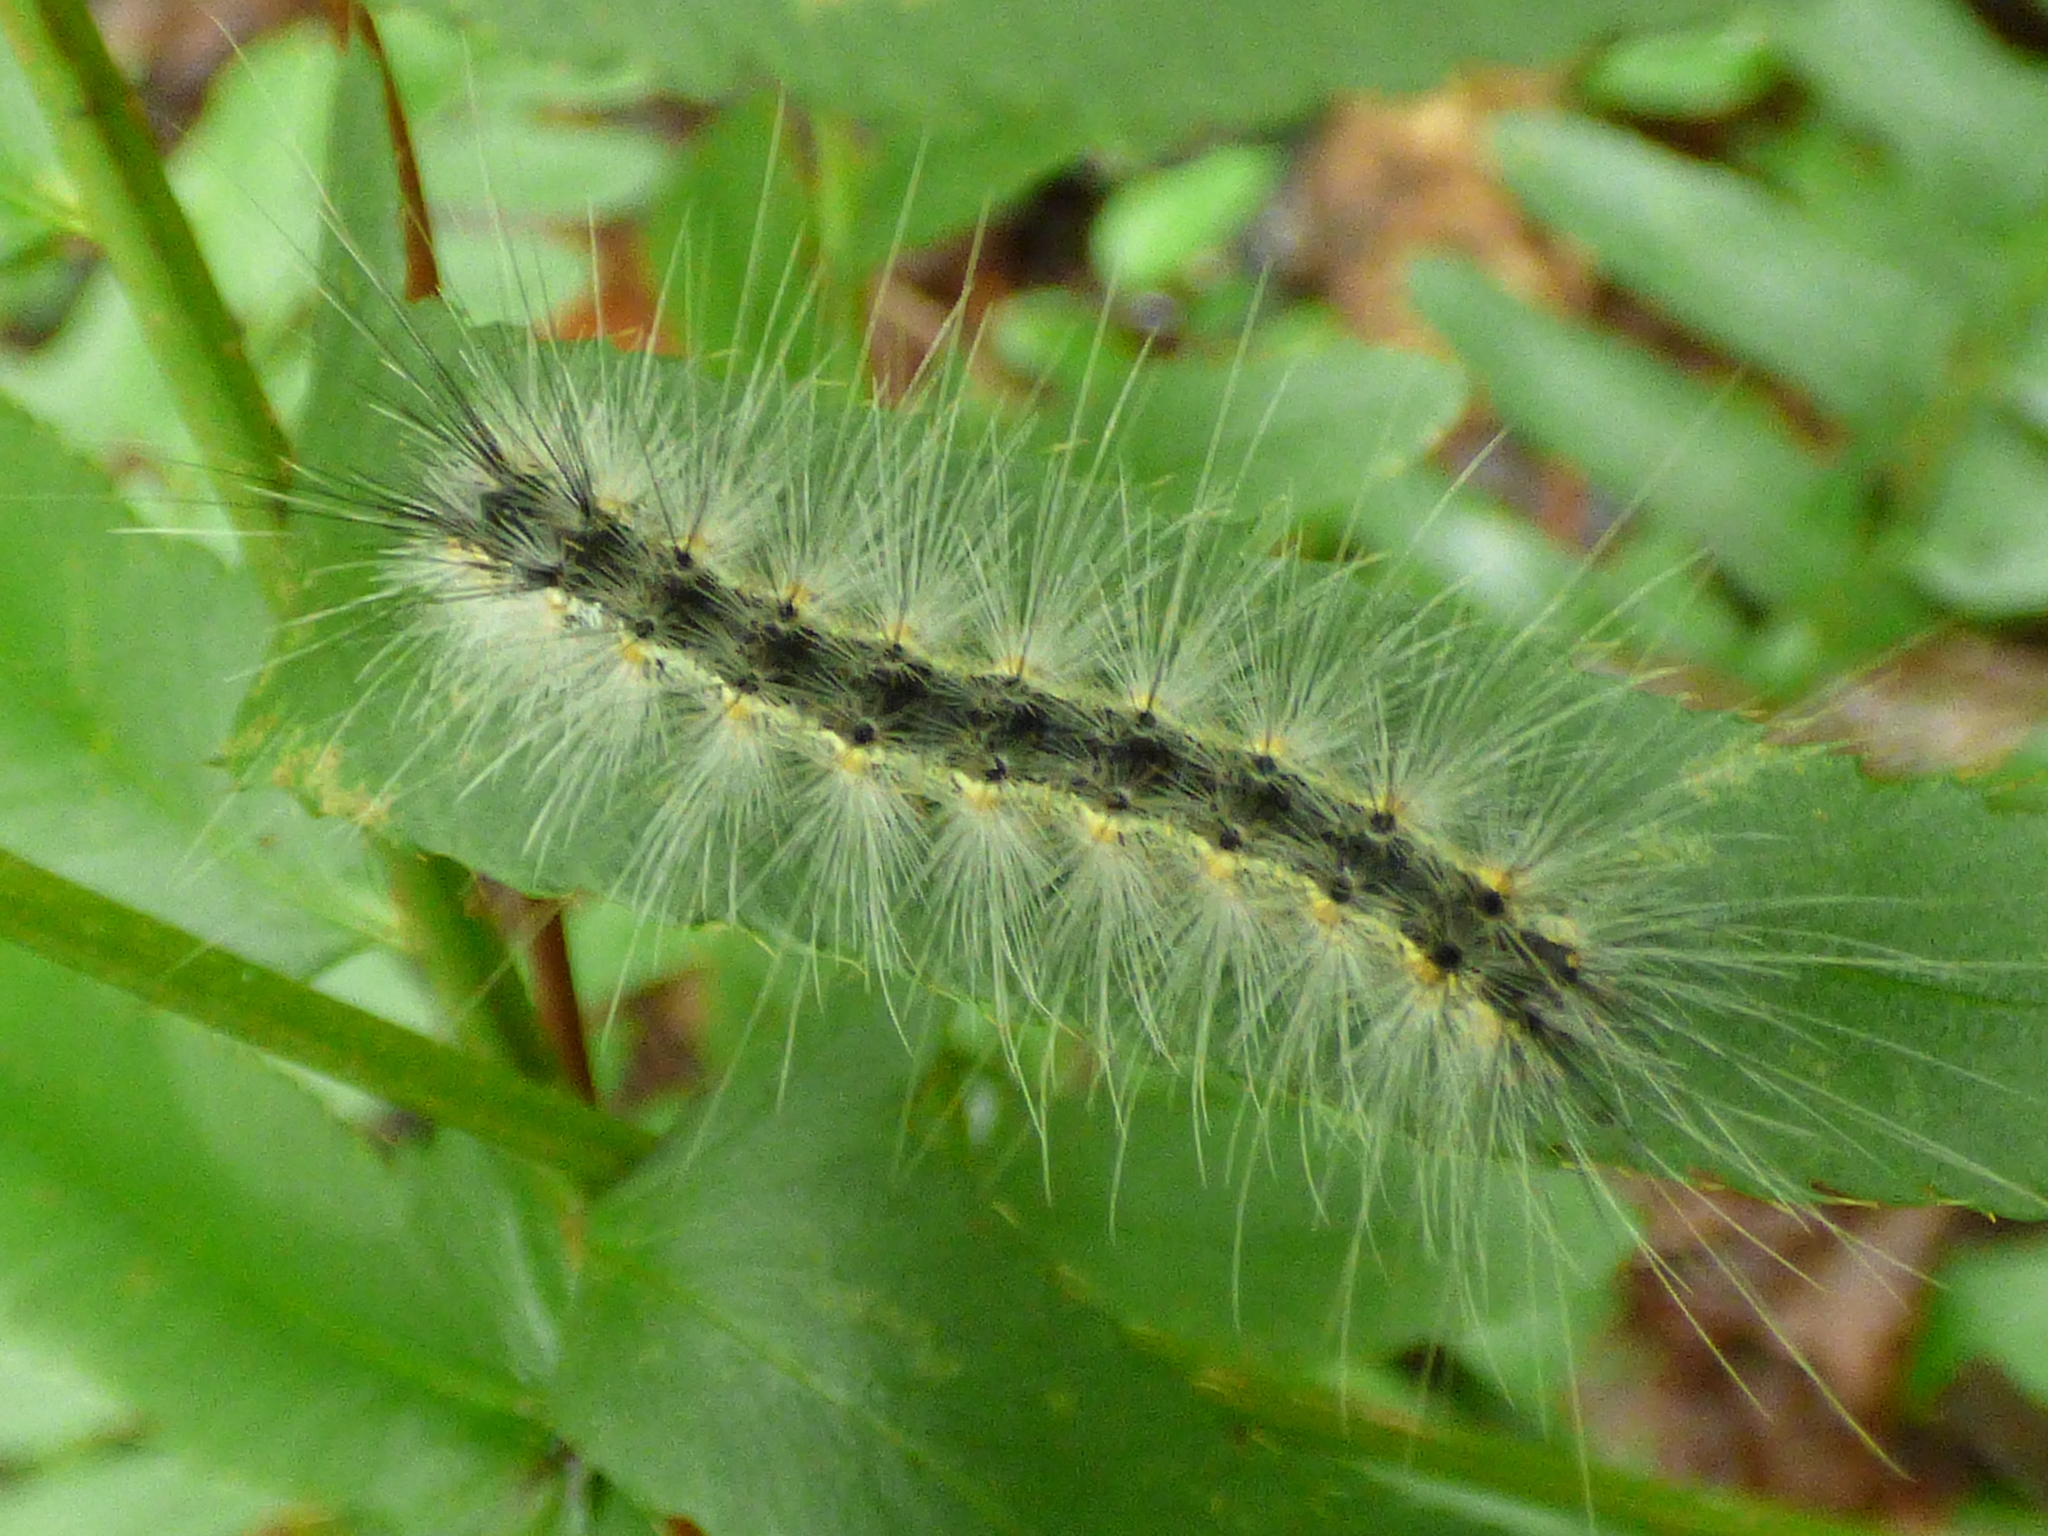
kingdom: Animalia
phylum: Arthropoda
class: Insecta
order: Lepidoptera
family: Erebidae
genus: Hyphantria
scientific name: Hyphantria cunea
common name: American white moth
